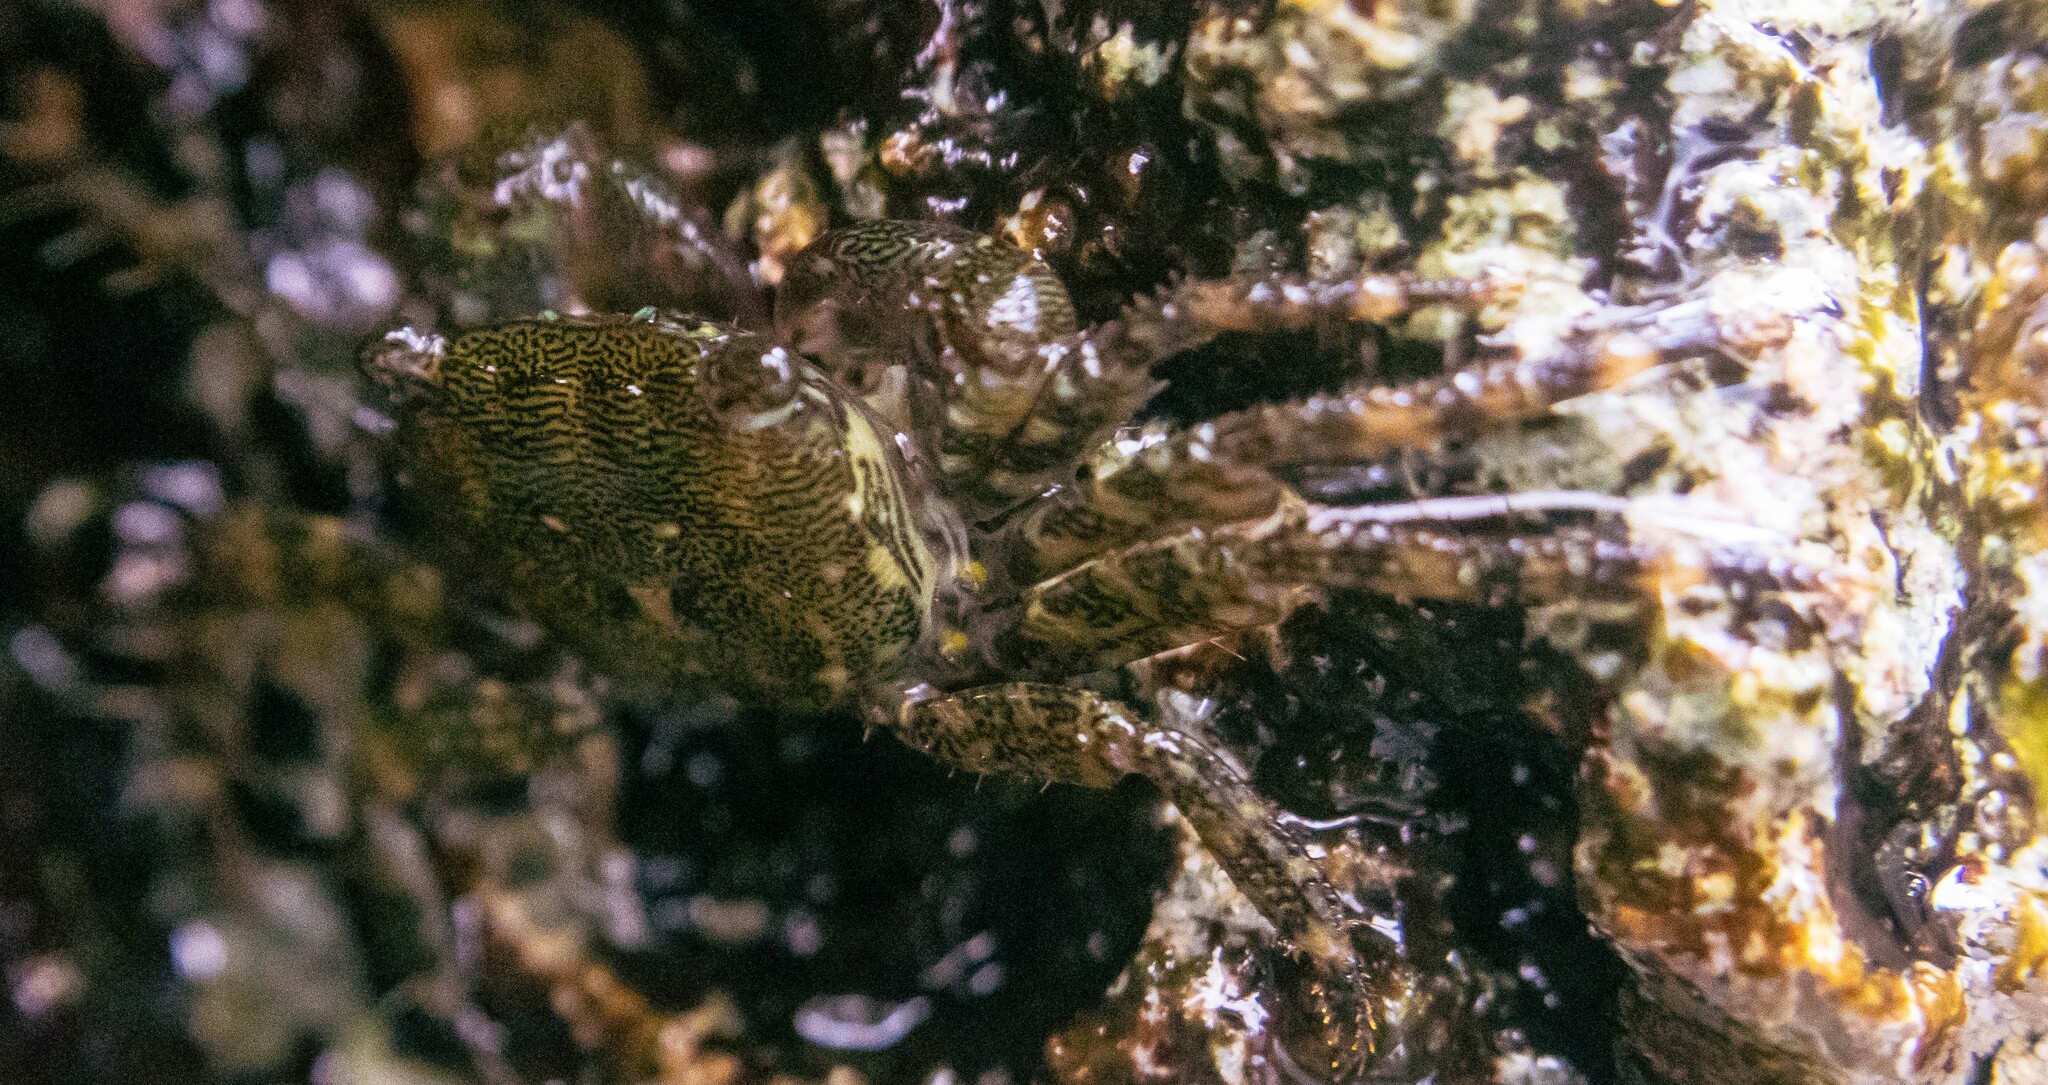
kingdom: Animalia
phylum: Arthropoda
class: Malacostraca
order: Decapoda
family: Grapsidae
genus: Pachygrapsus
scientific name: Pachygrapsus marmoratus
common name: Marbled rock crab
